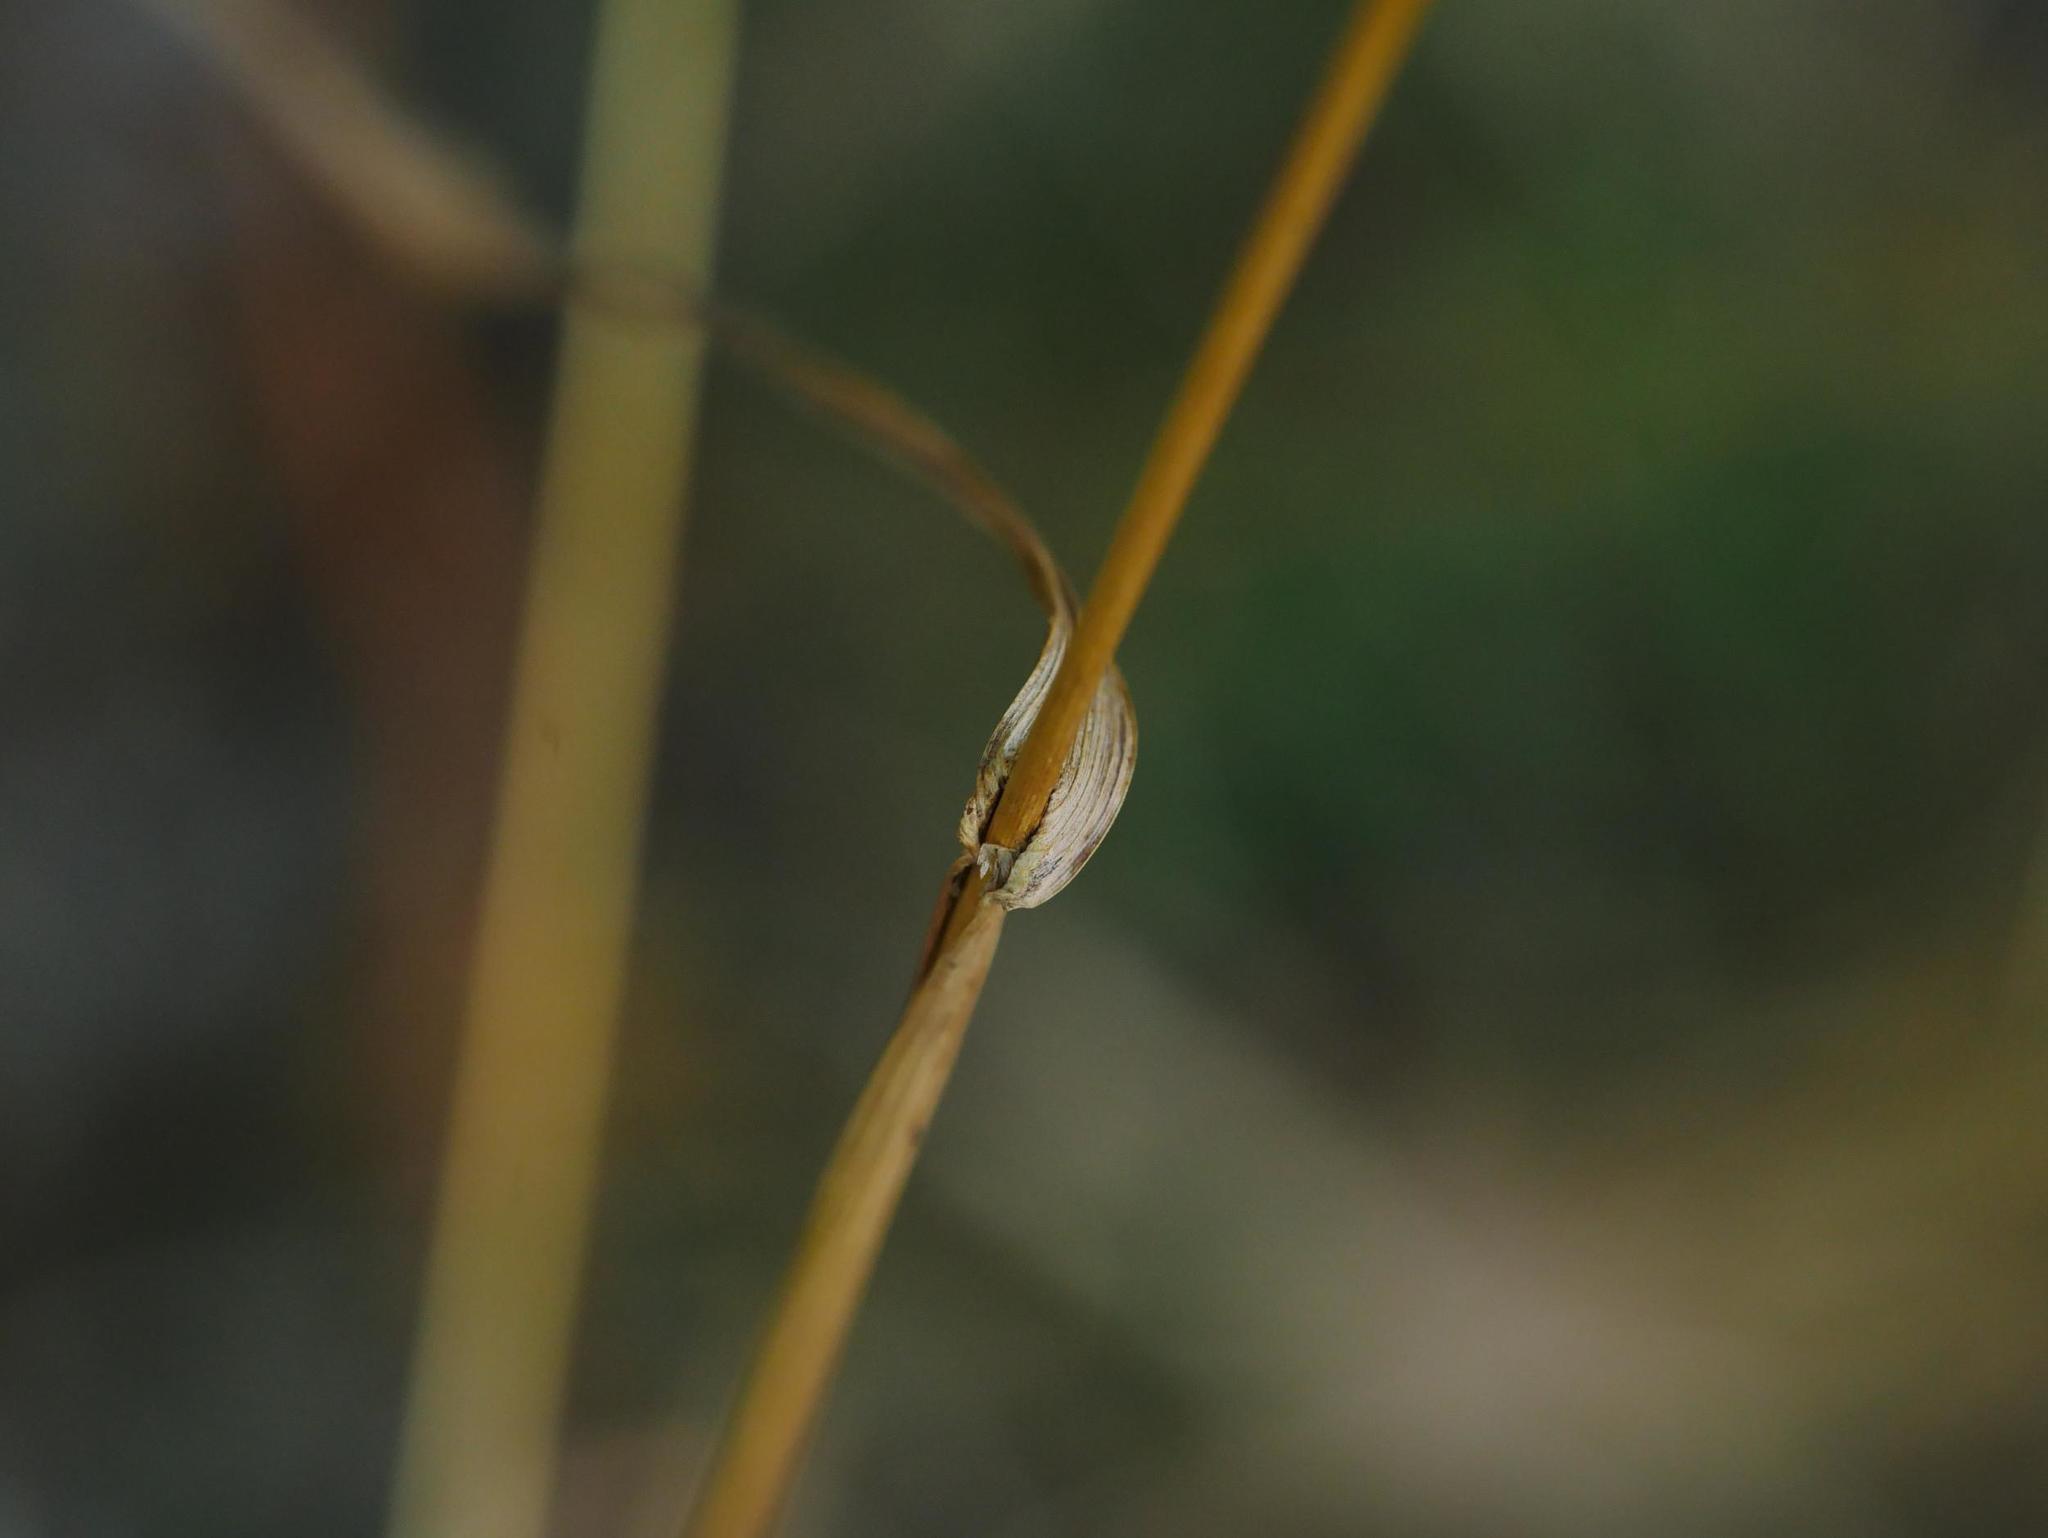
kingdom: Plantae
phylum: Tracheophyta
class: Liliopsida
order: Poales
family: Poaceae
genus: Dactylis
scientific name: Dactylis glomerata
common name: Orchardgrass
